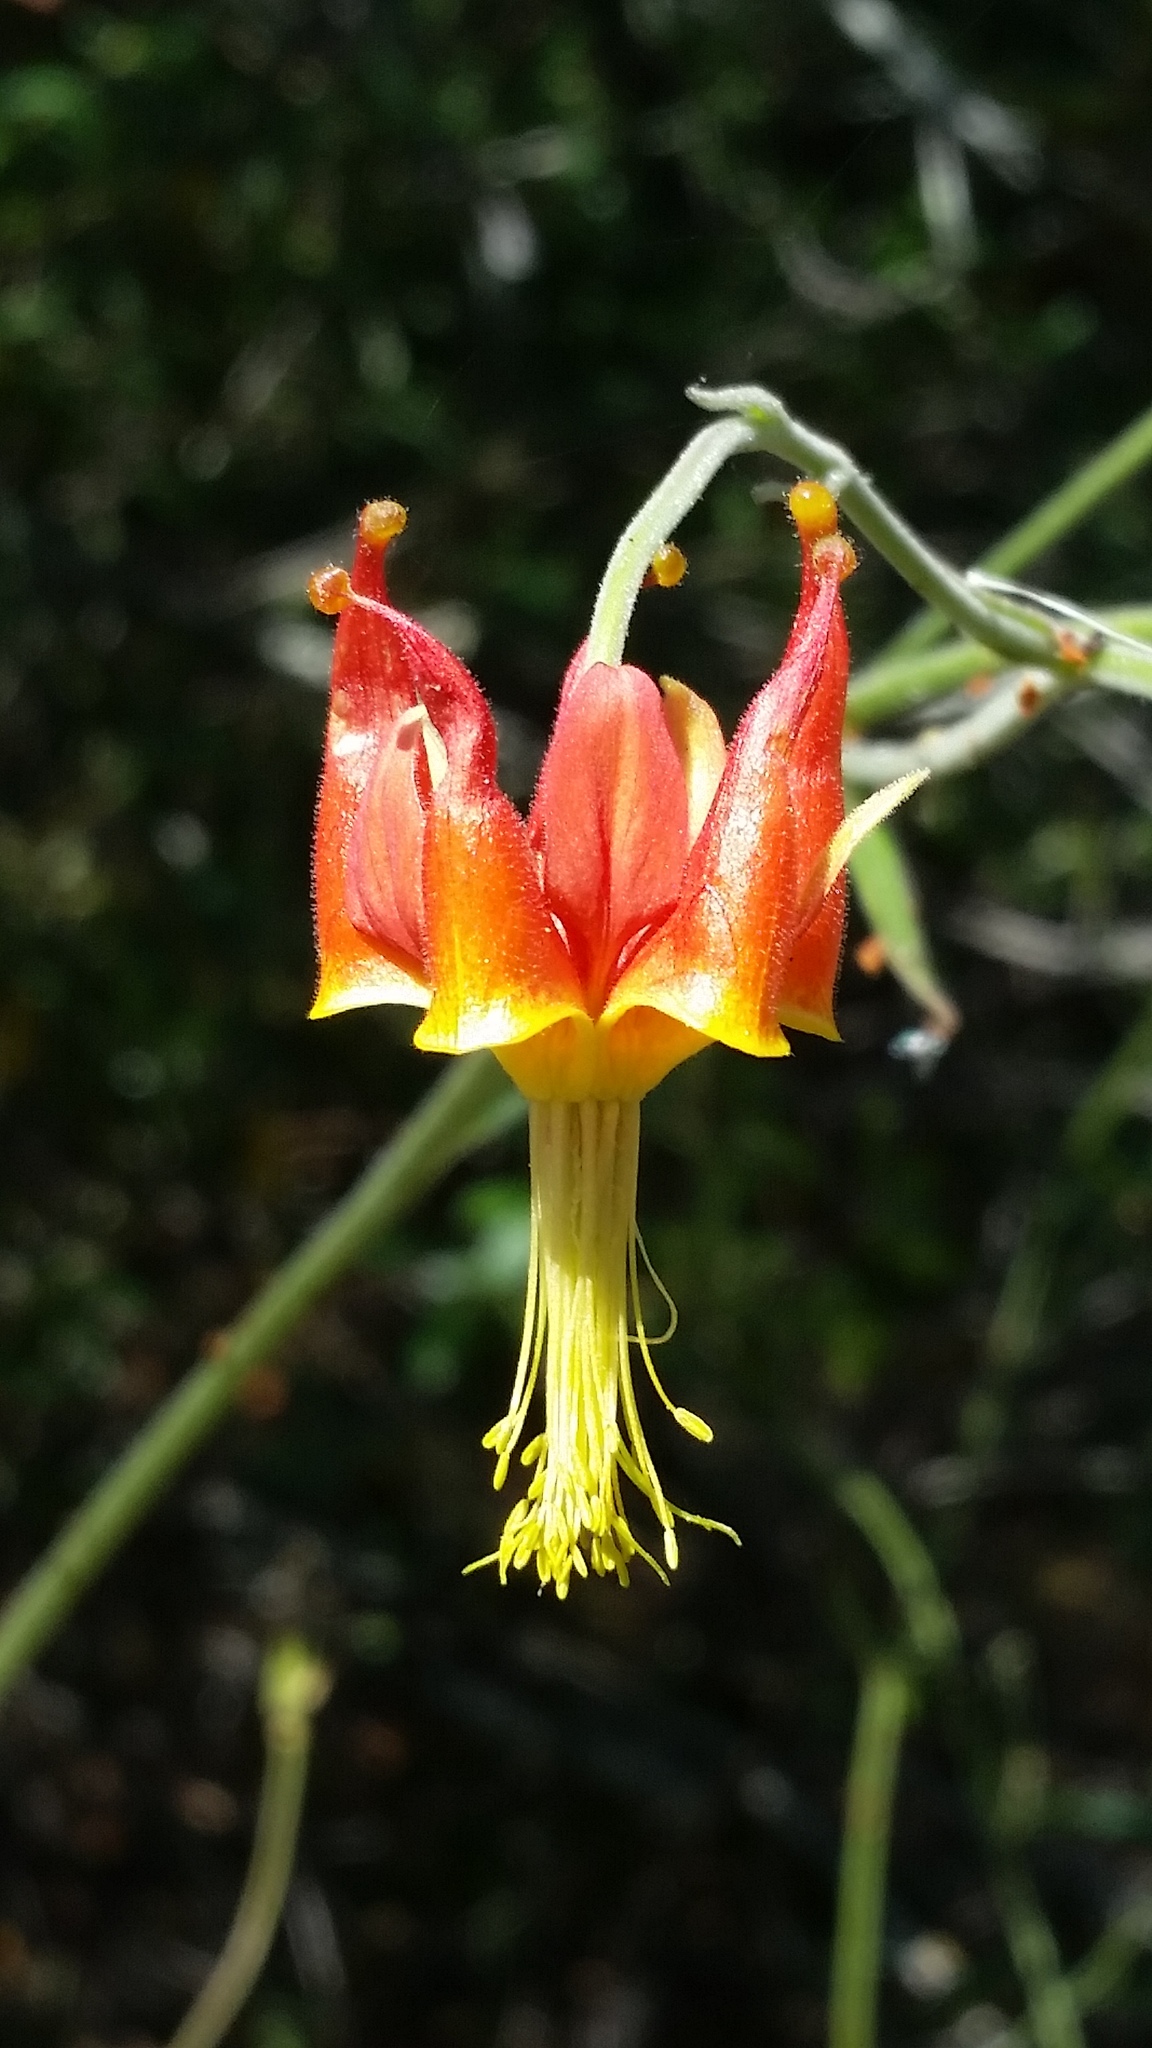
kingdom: Plantae
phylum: Tracheophyta
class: Magnoliopsida
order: Ranunculales
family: Ranunculaceae
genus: Aquilegia
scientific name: Aquilegia eximia
